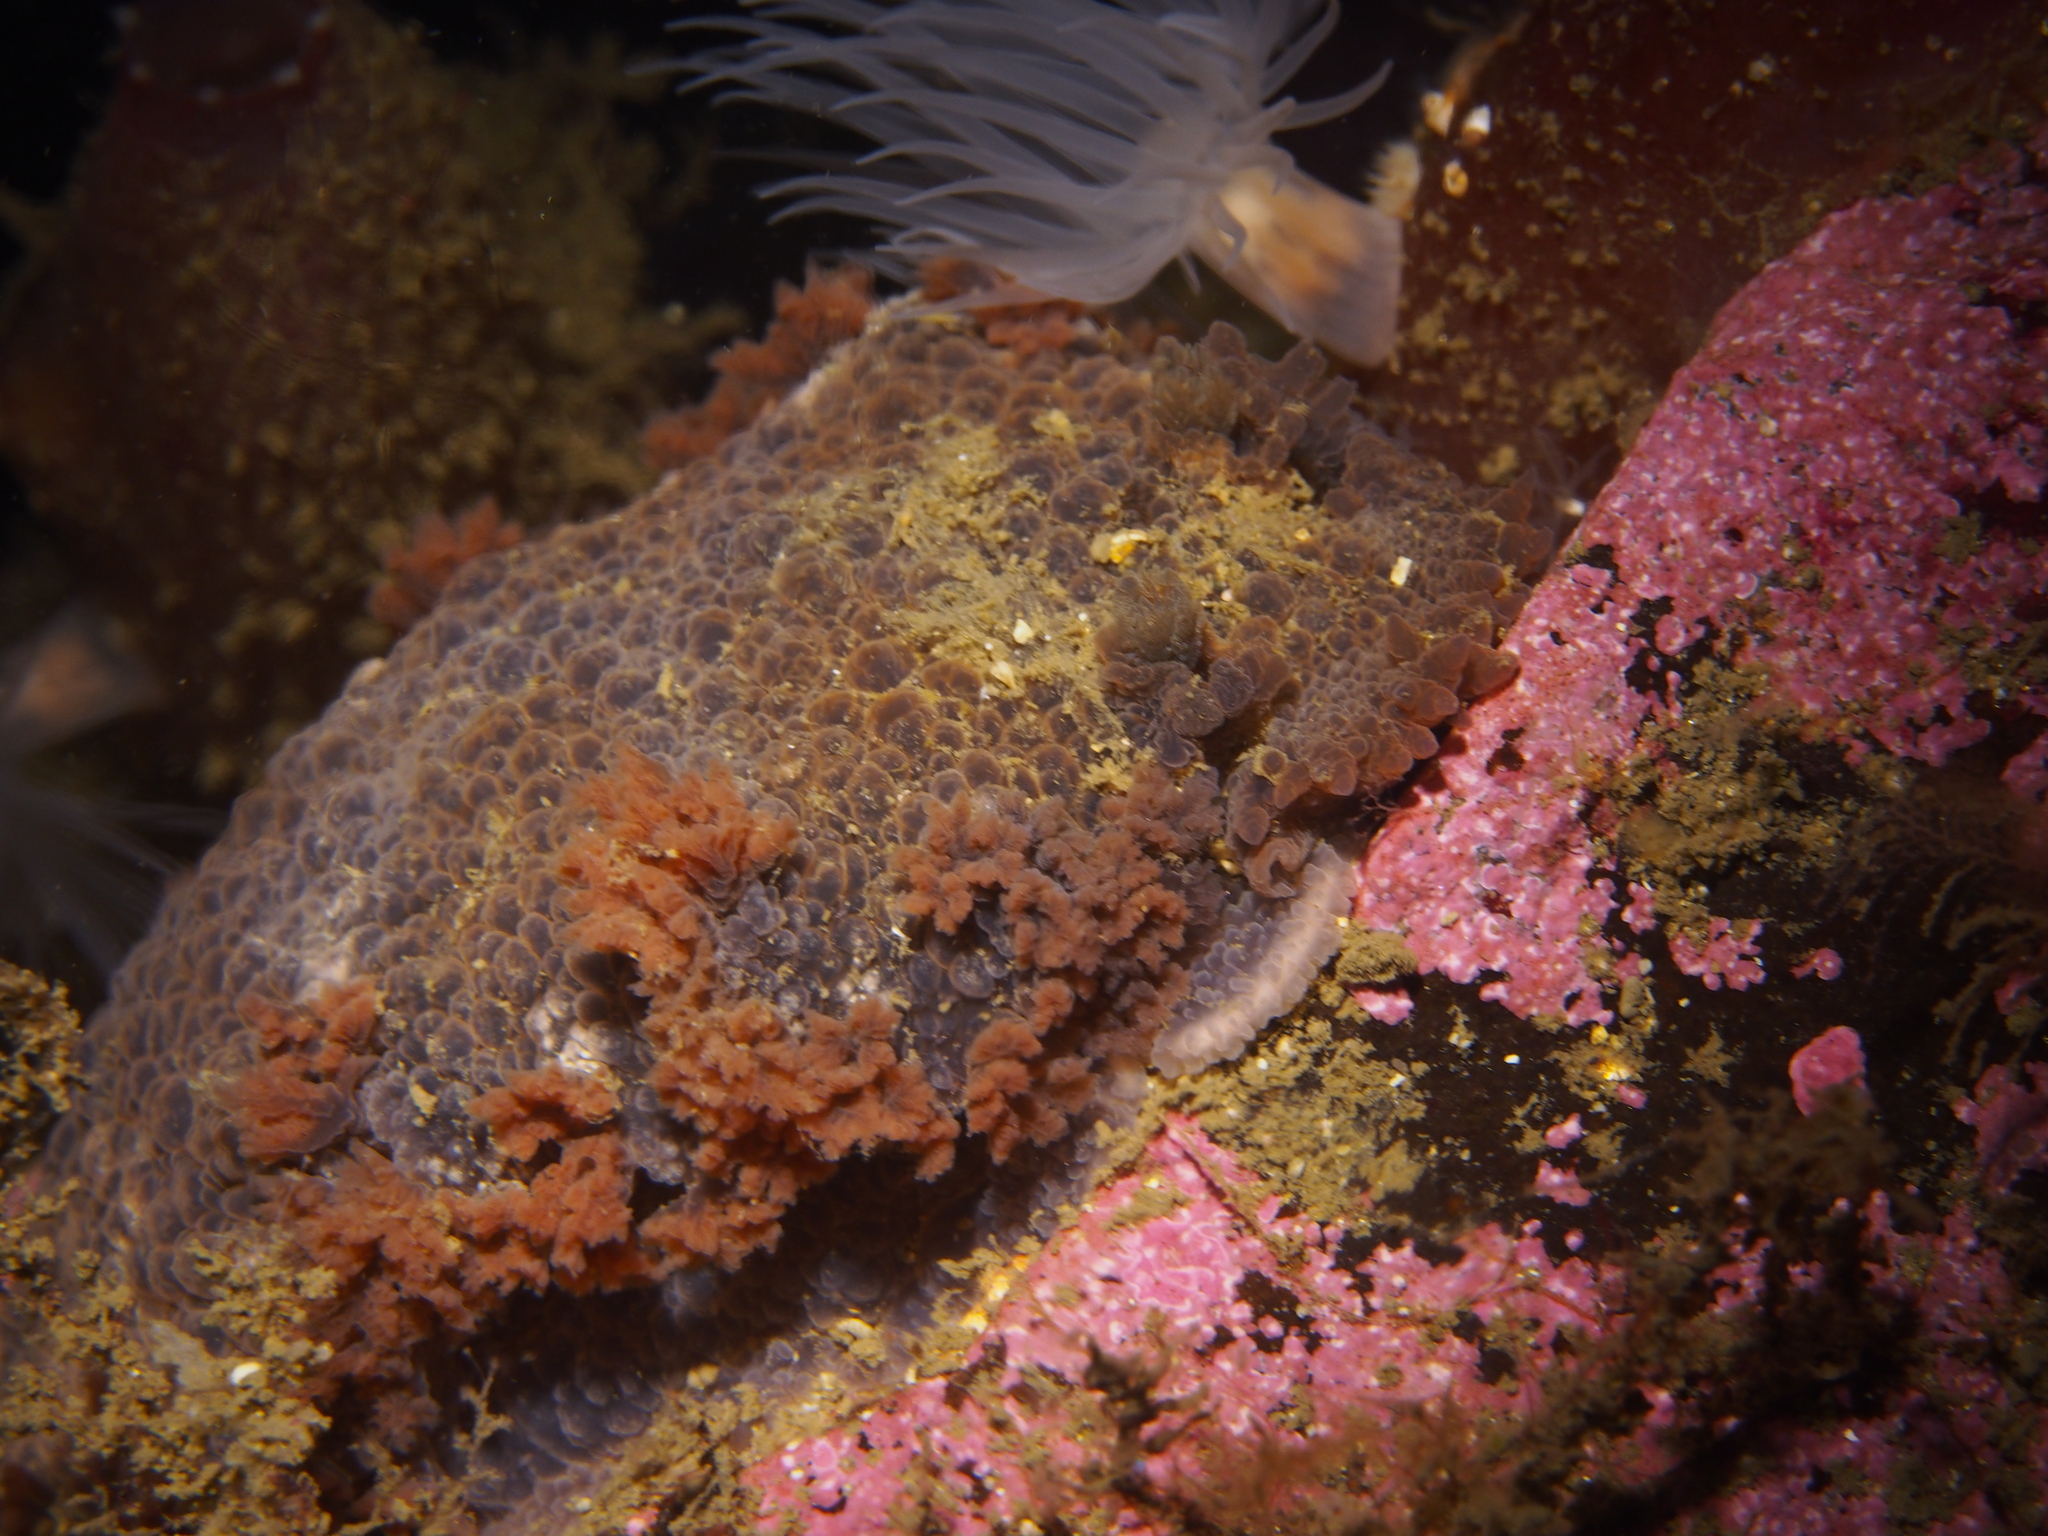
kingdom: Animalia
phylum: Mollusca
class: Gastropoda
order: Nudibranchia
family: Tritoniidae
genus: Tritonia
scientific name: Tritonia hombergii
